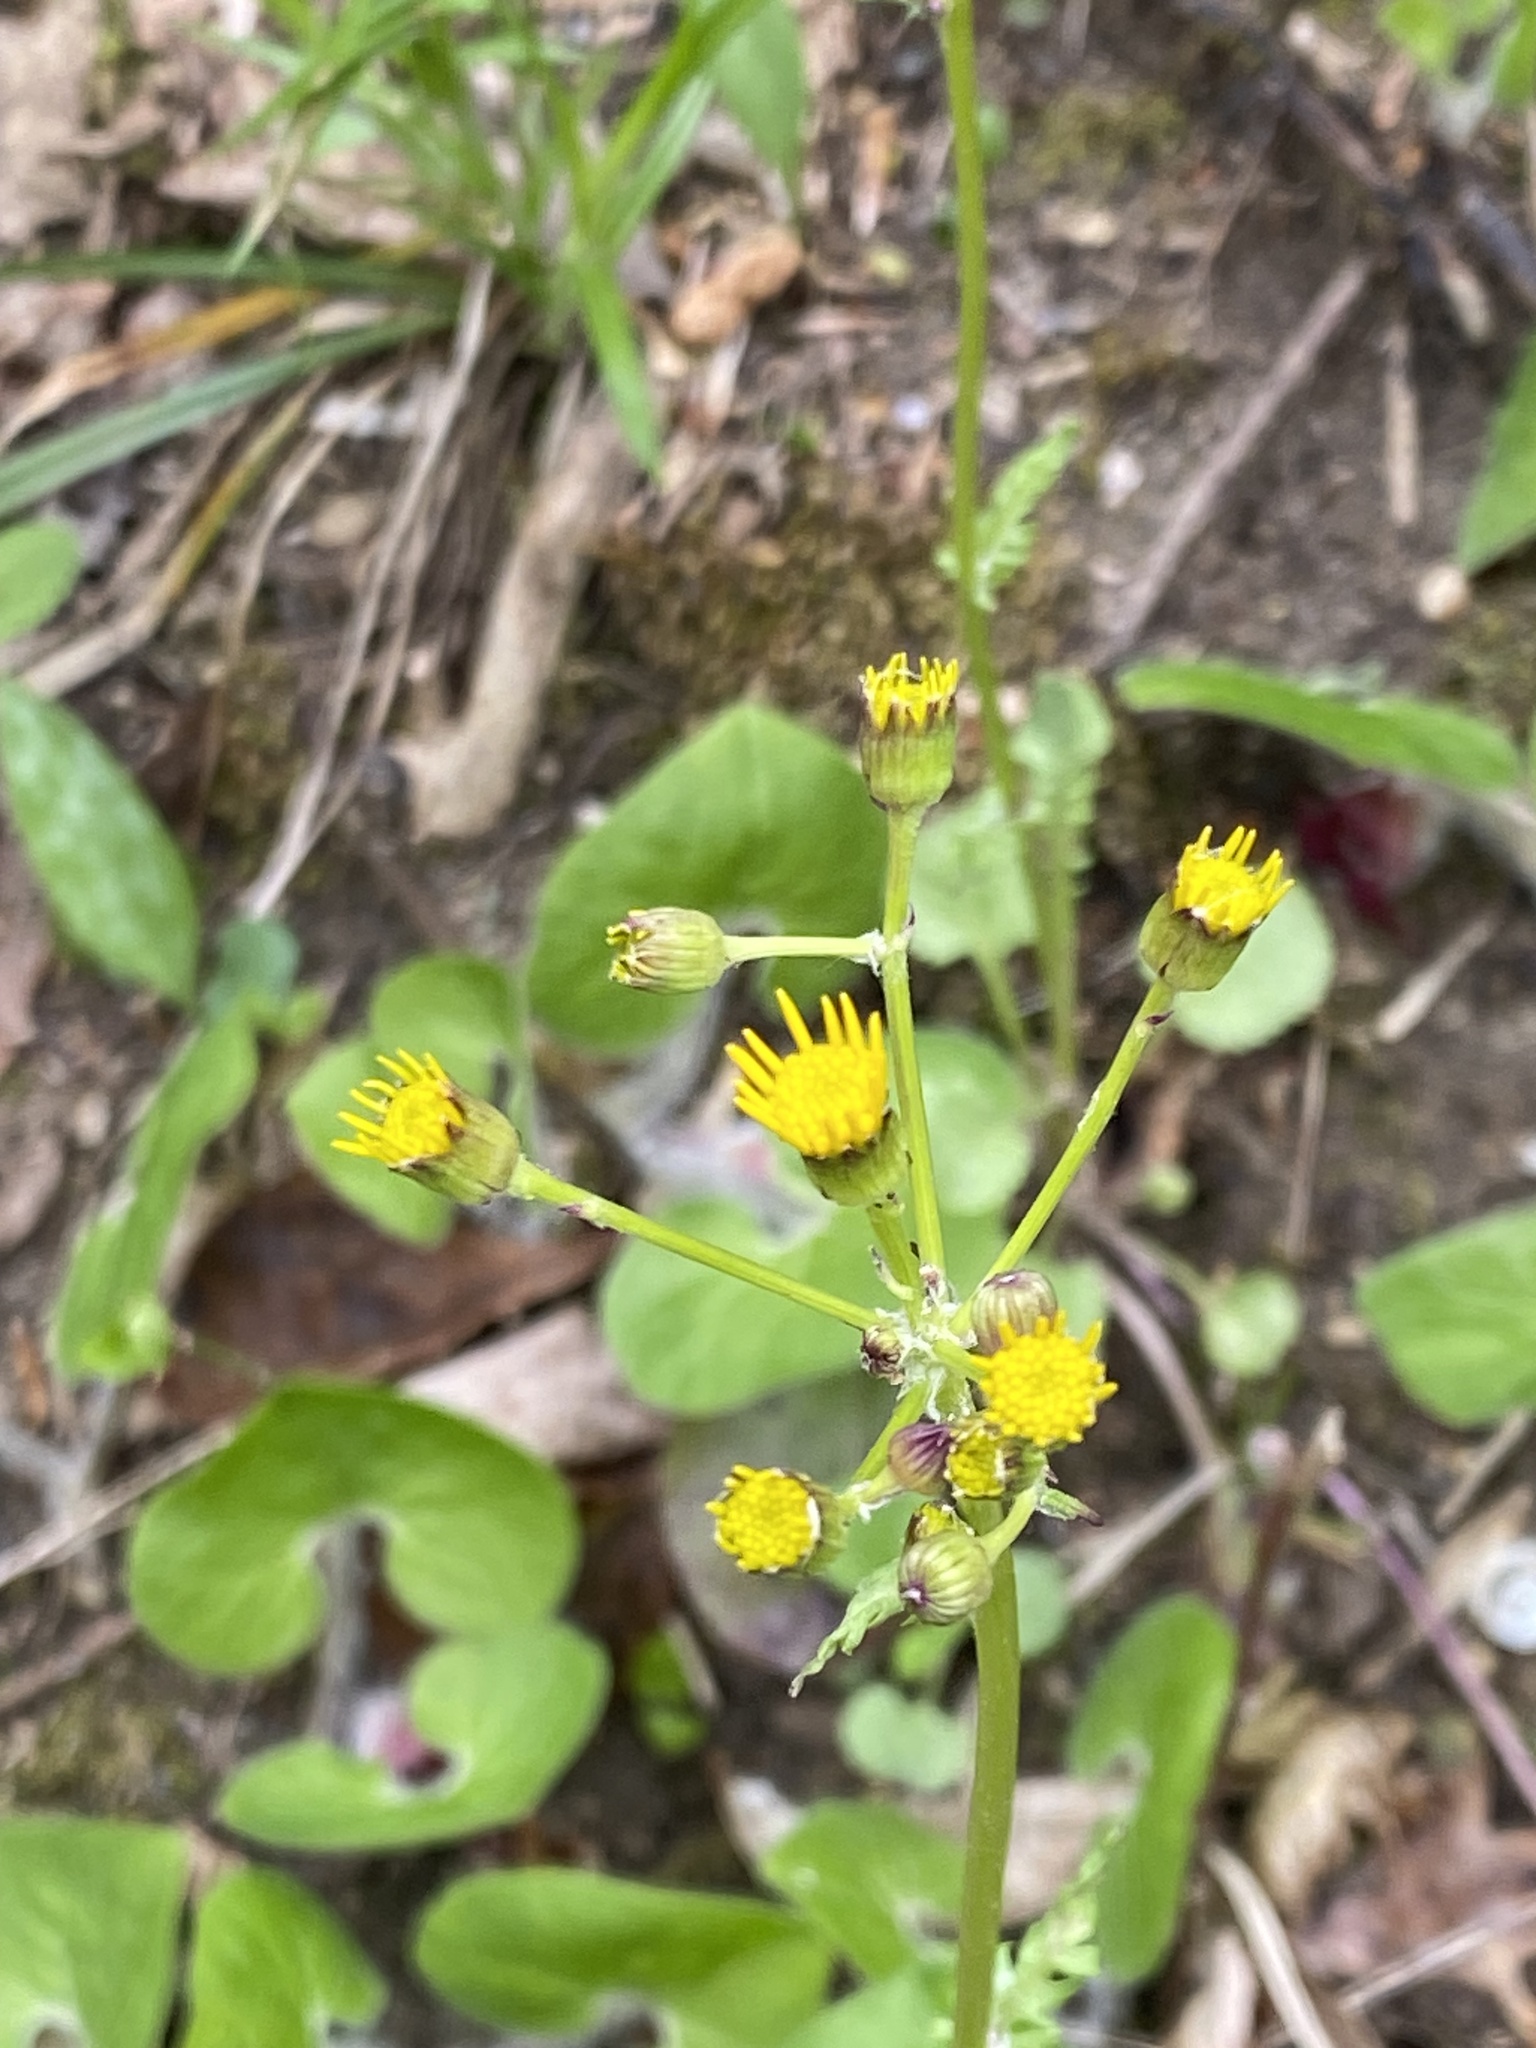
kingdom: Plantae
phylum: Tracheophyta
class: Magnoliopsida
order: Asterales
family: Asteraceae
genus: Packera
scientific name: Packera obovata
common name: Round-leaf ragwort
